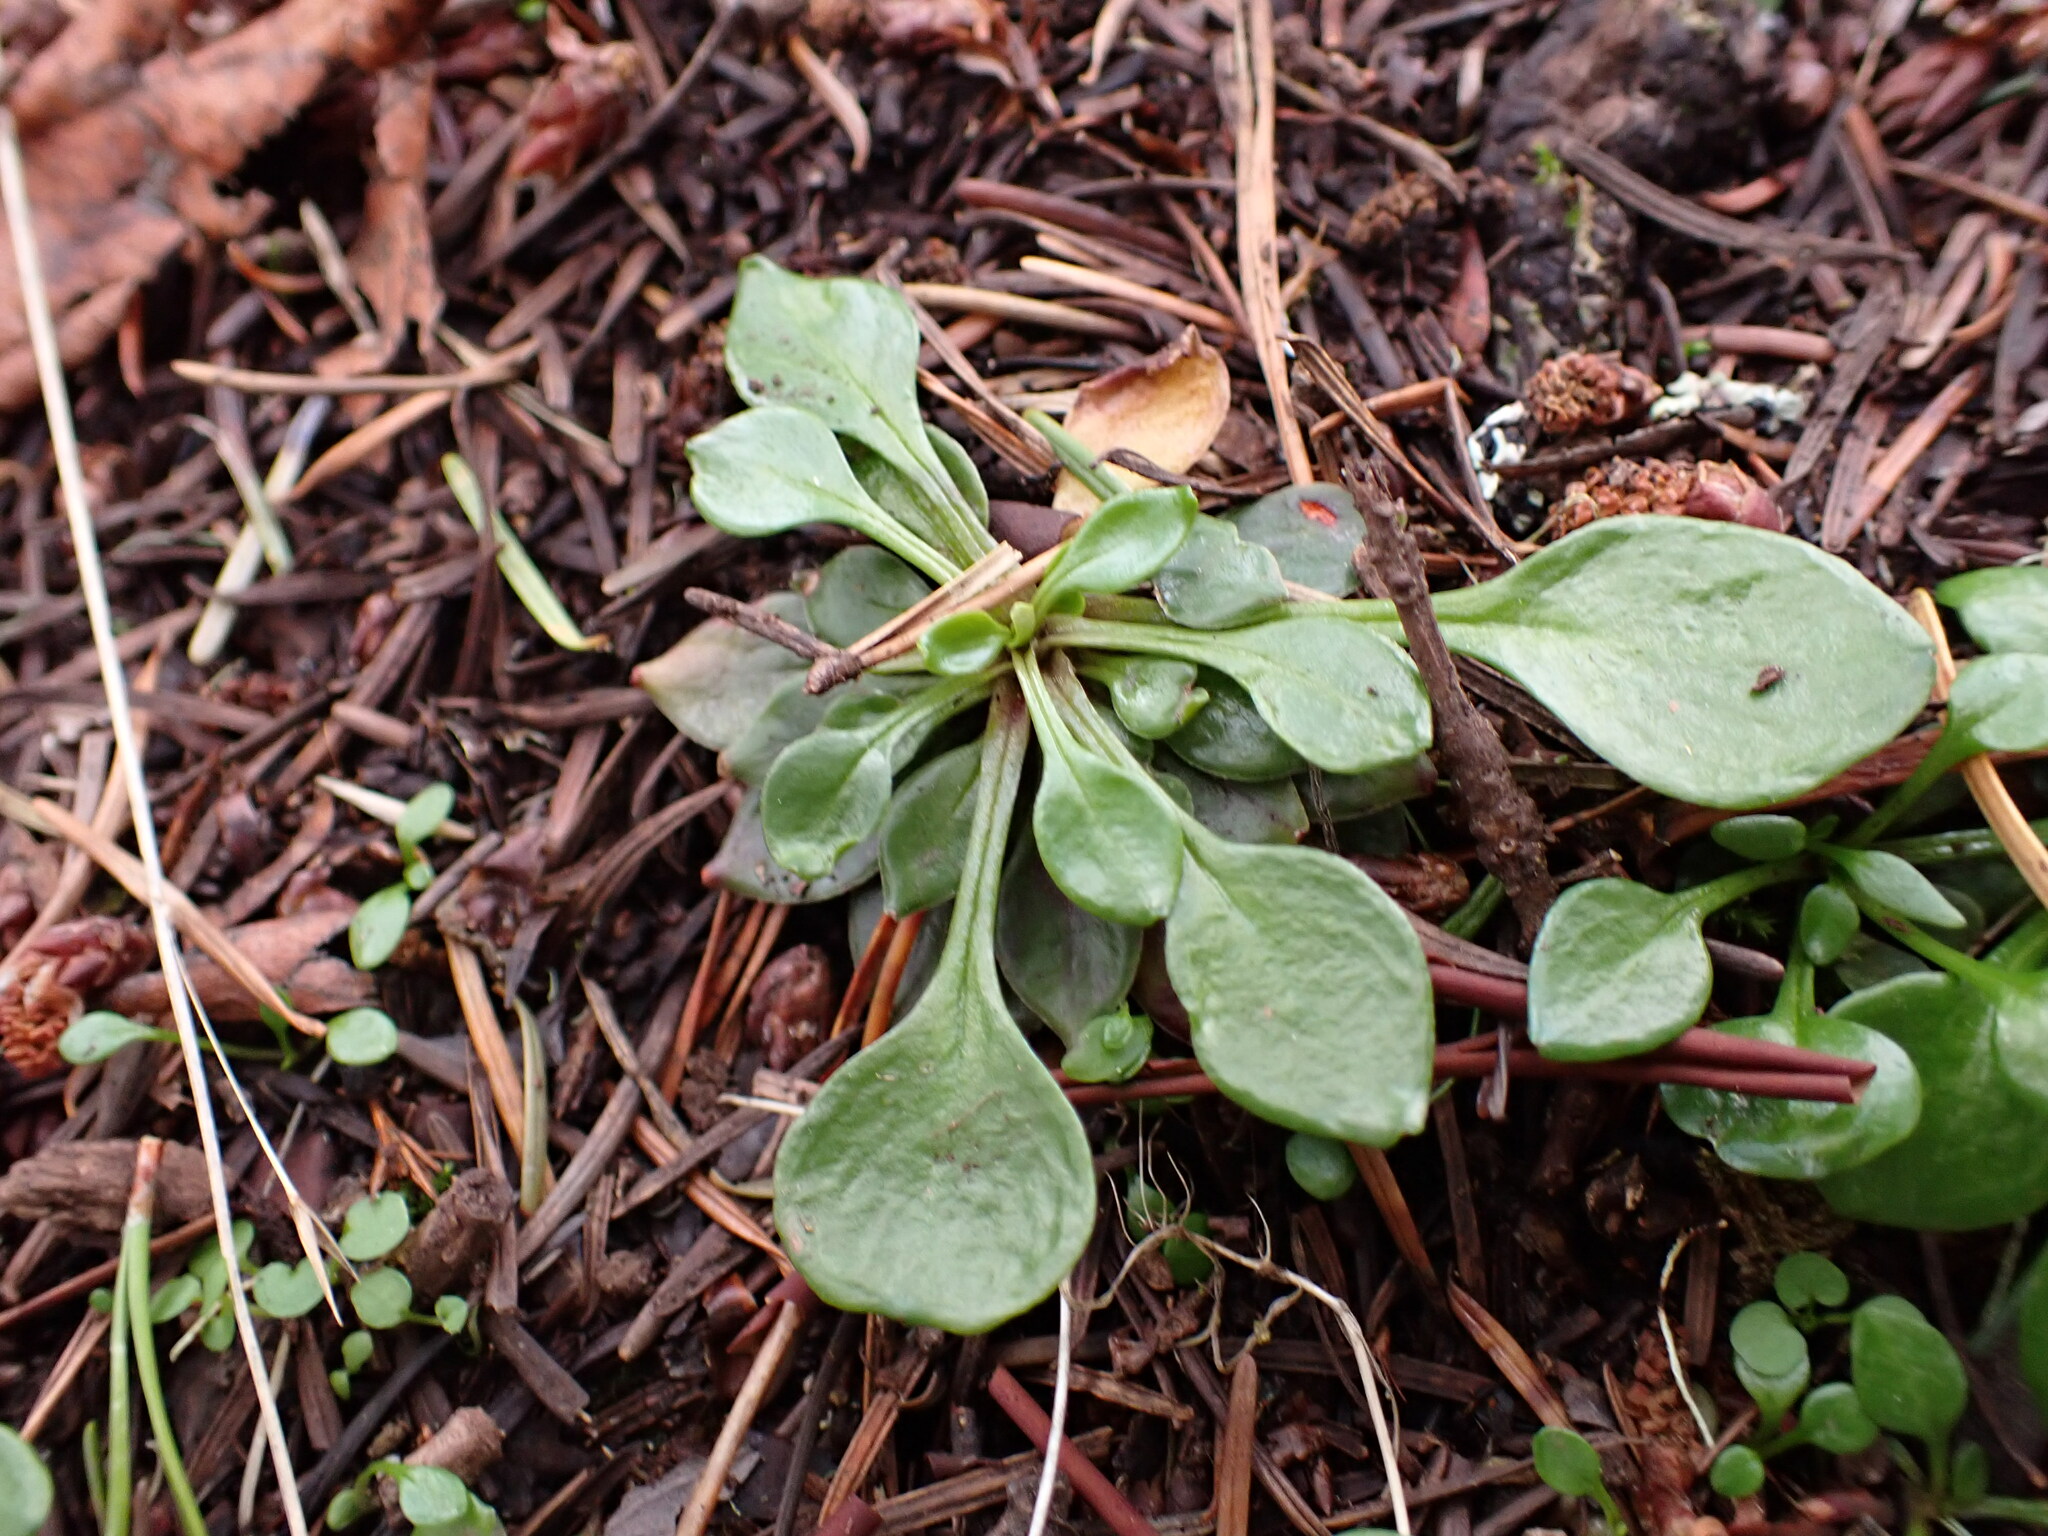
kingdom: Plantae
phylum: Tracheophyta
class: Magnoliopsida
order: Caryophyllales
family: Montiaceae
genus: Montia
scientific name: Montia parvifolia
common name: Small-leaved blinks
